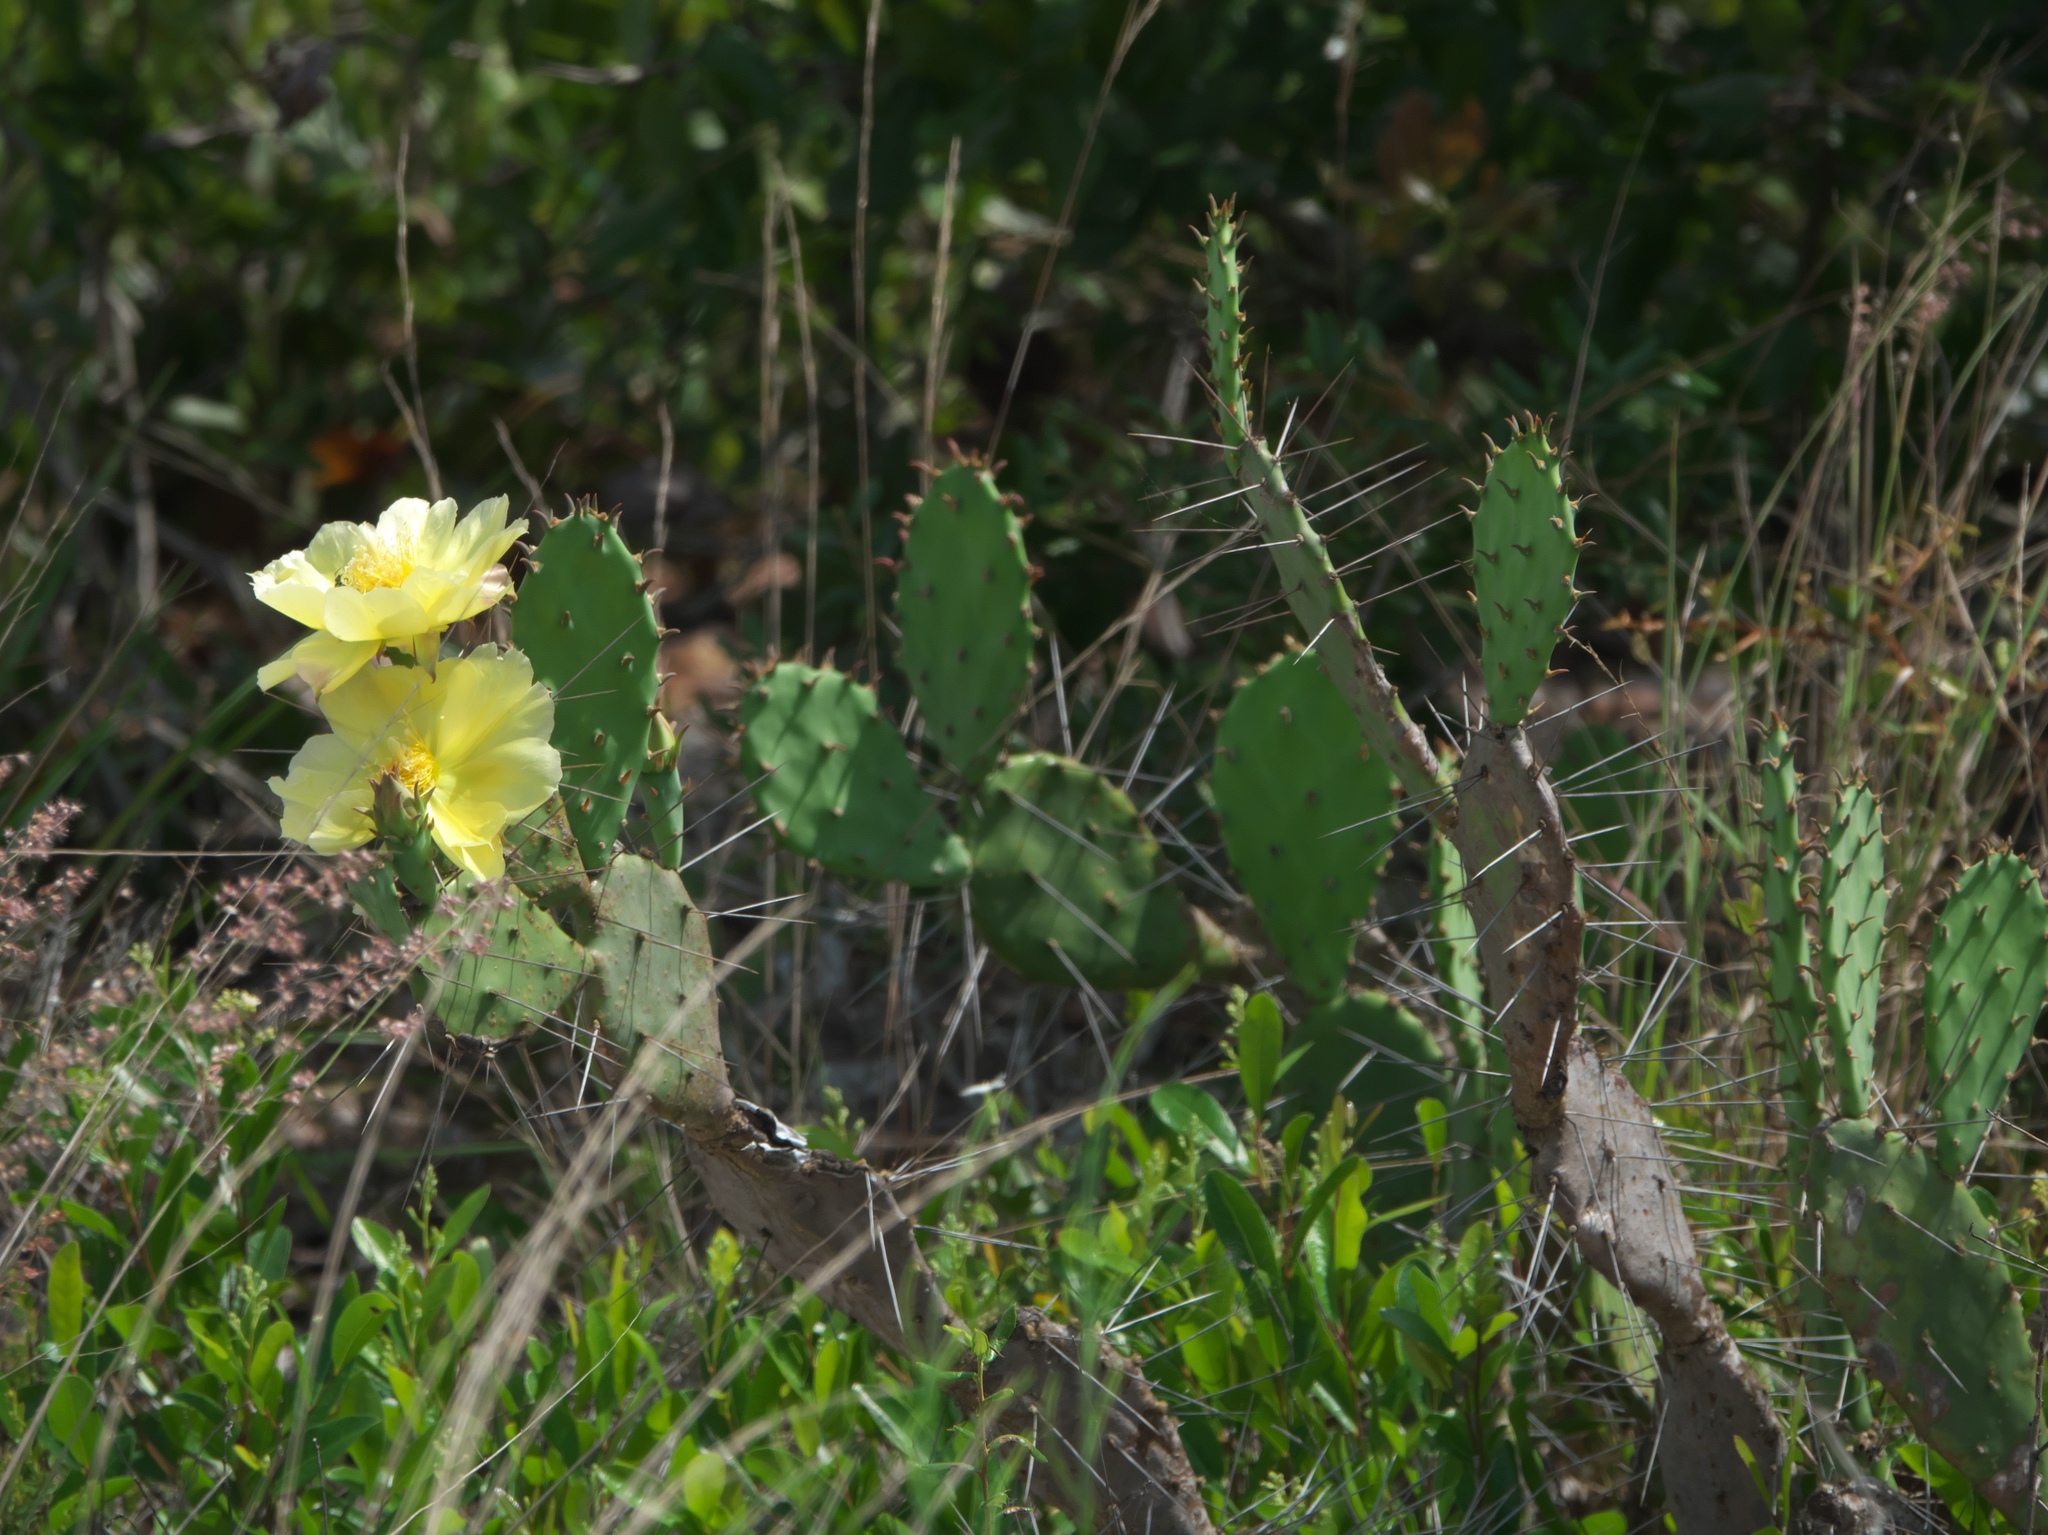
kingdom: Plantae
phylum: Tracheophyta
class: Magnoliopsida
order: Caryophyllales
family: Cactaceae
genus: Opuntia
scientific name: Opuntia austrina
